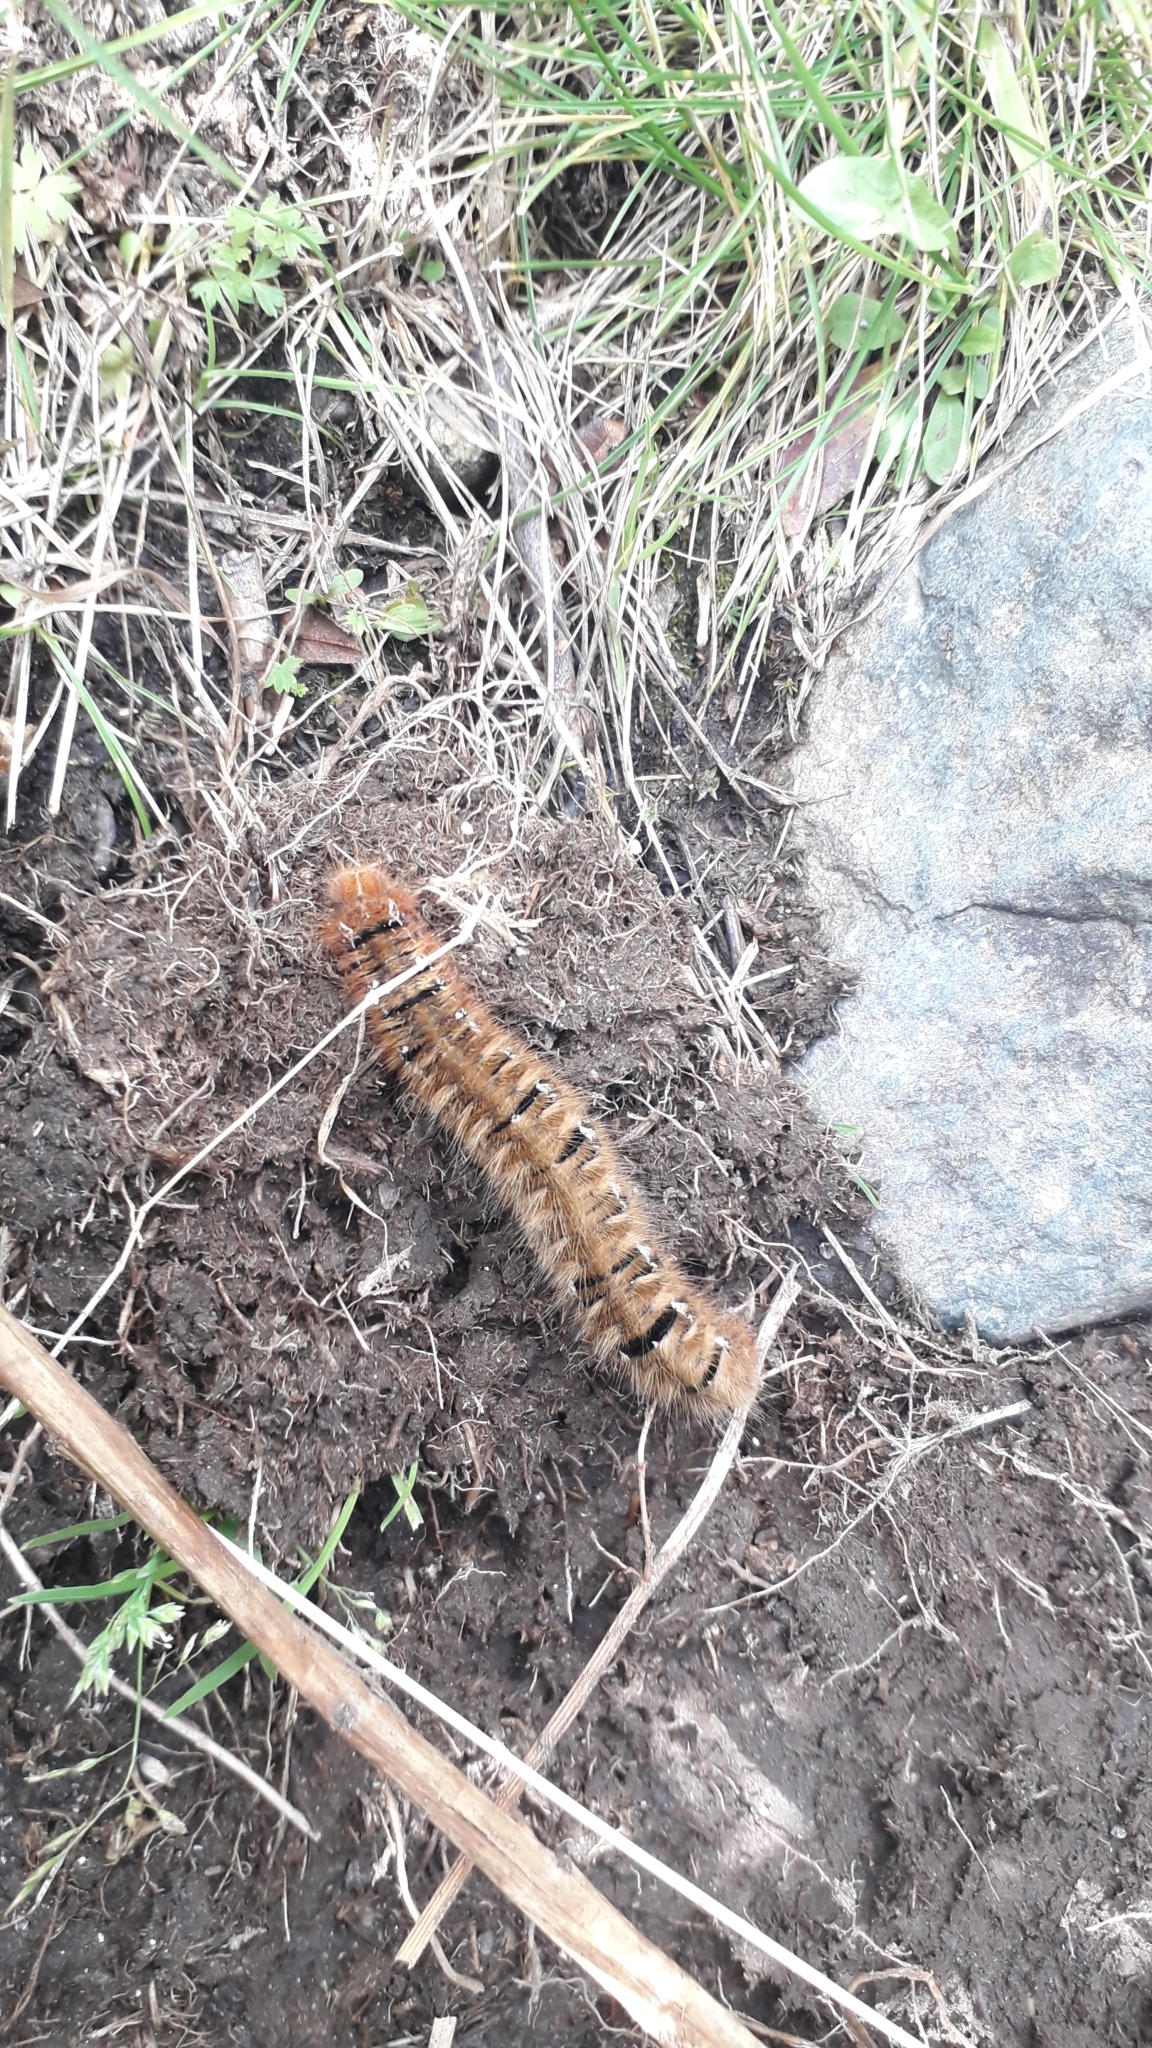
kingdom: Animalia
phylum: Arthropoda
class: Insecta
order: Lepidoptera
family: Lasiocampidae
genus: Lasiocampa
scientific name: Lasiocampa quercus
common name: Oak eggar
